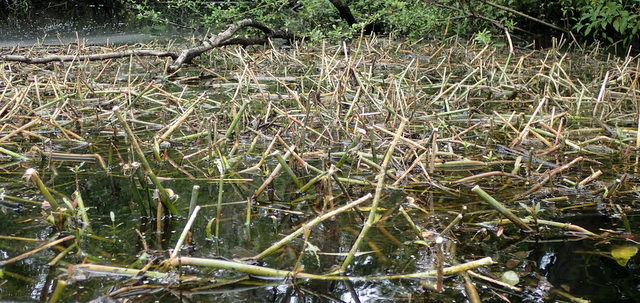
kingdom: Plantae
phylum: Tracheophyta
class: Magnoliopsida
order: Caryophyllales
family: Amaranthaceae
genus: Alternanthera
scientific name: Alternanthera philoxeroides
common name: Alligatorweed
